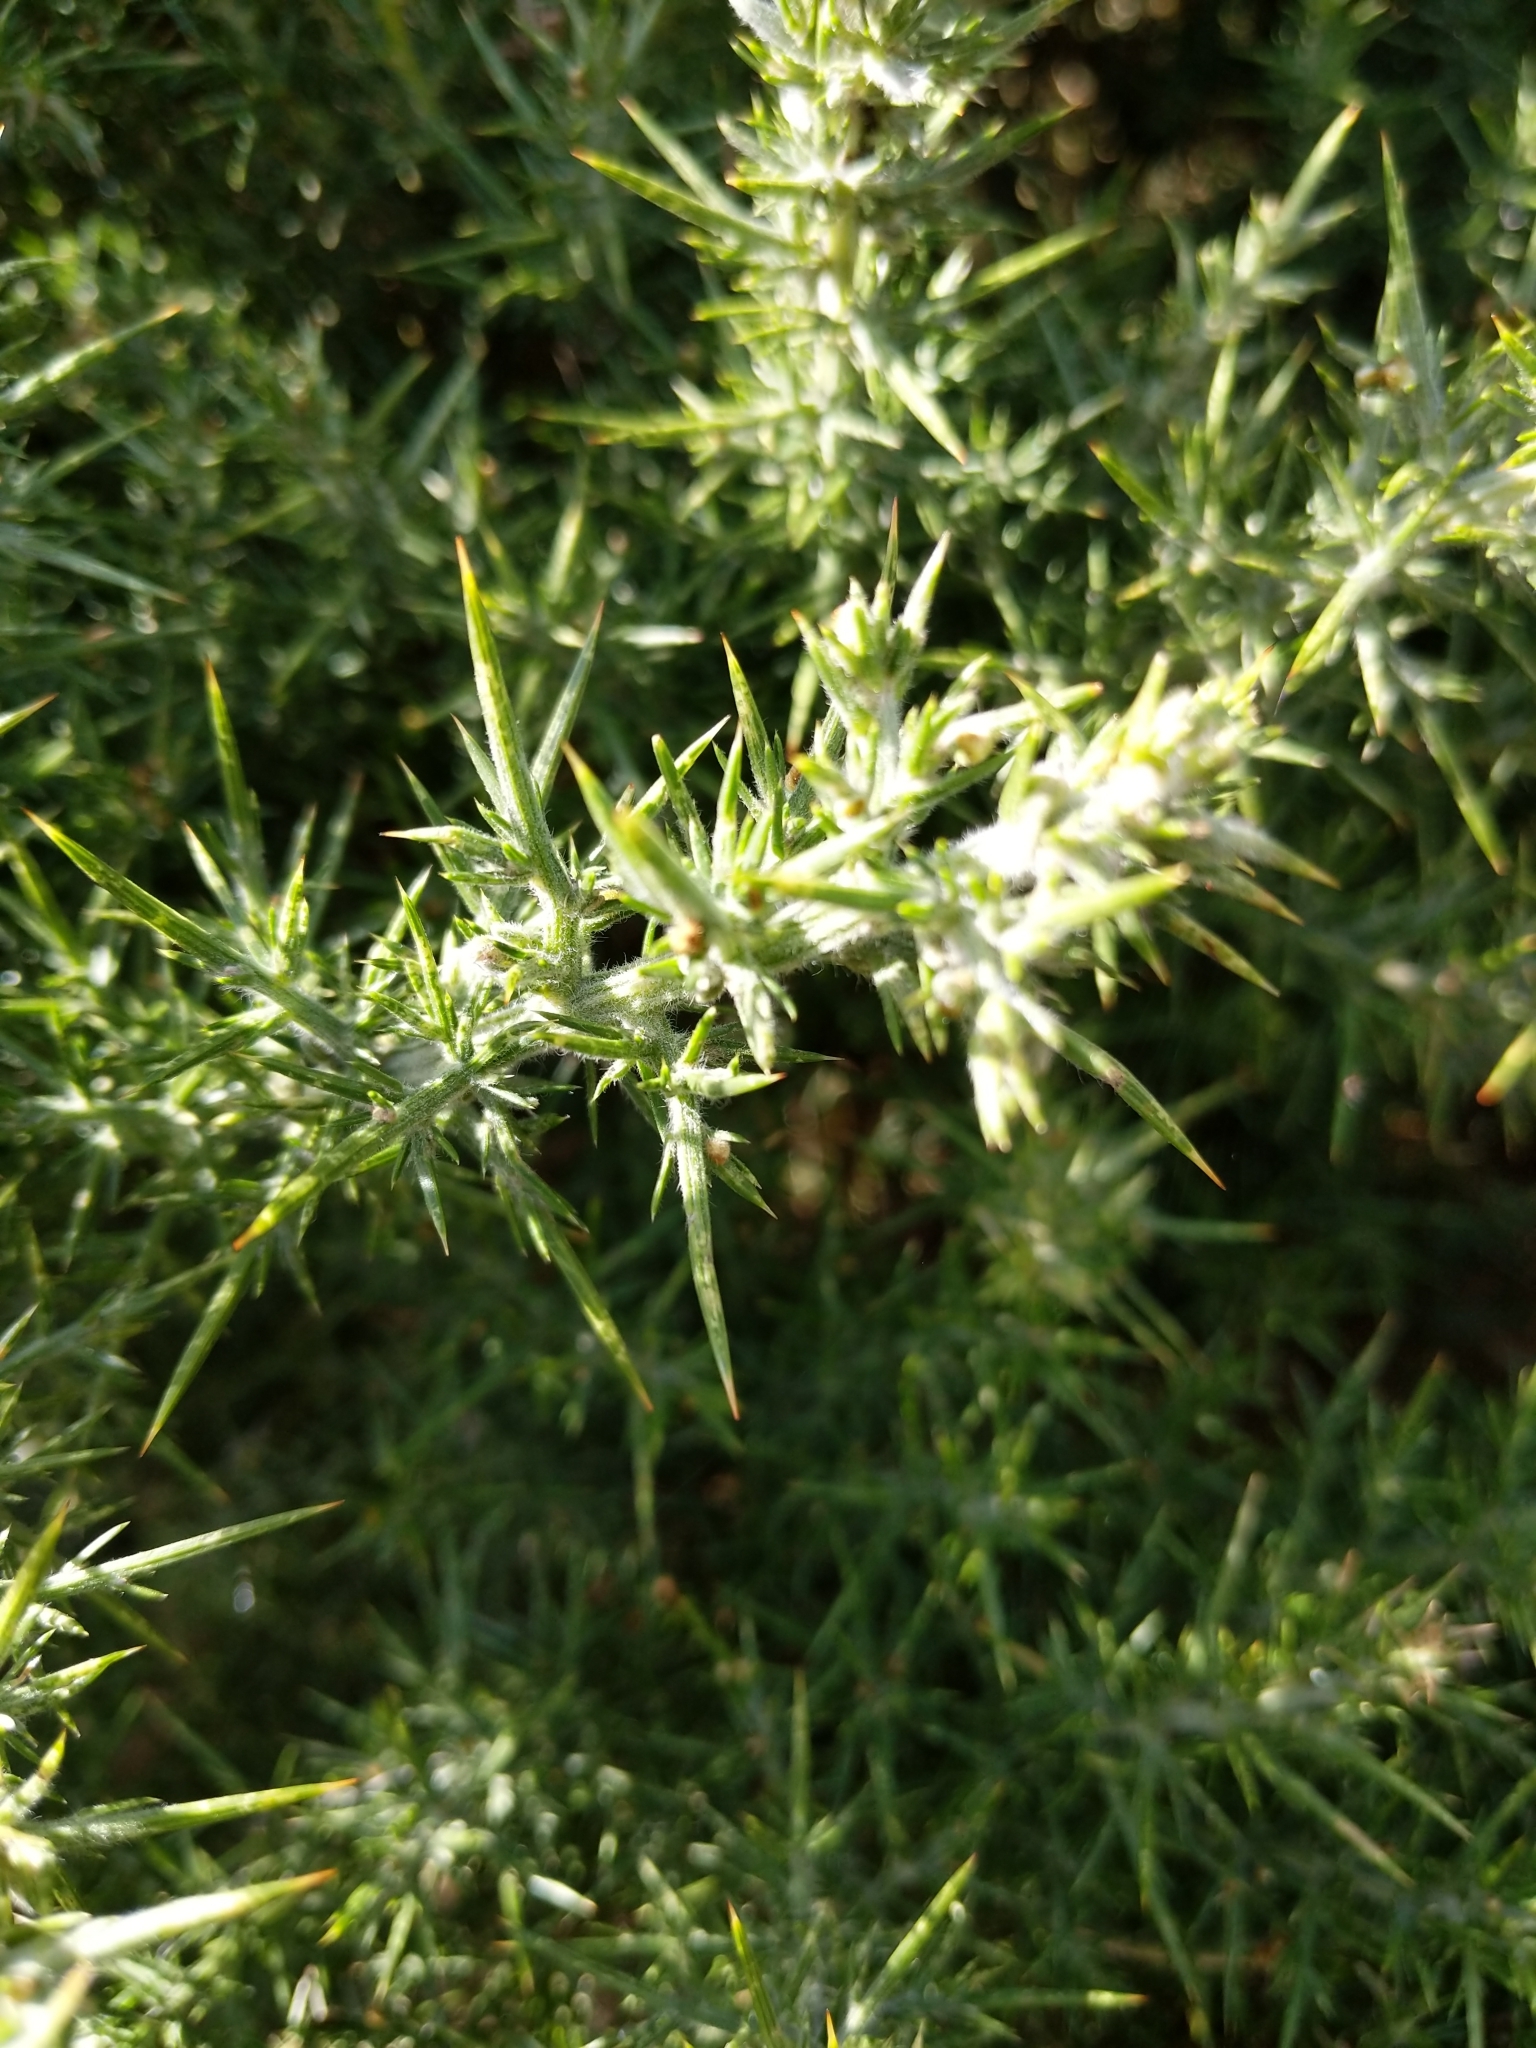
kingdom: Plantae
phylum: Tracheophyta
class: Magnoliopsida
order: Fabales
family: Fabaceae
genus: Ulex
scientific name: Ulex europaeus
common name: Common gorse
